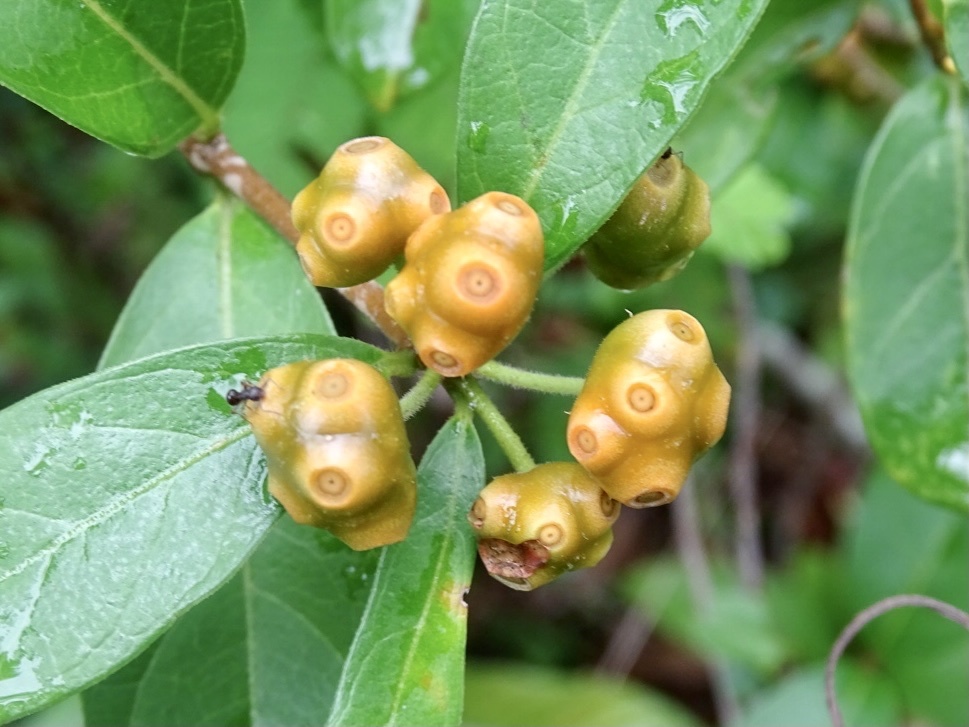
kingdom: Plantae
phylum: Tracheophyta
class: Magnoliopsida
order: Gentianales
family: Rubiaceae
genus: Gynochthodes
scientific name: Gynochthodes parvifolia
